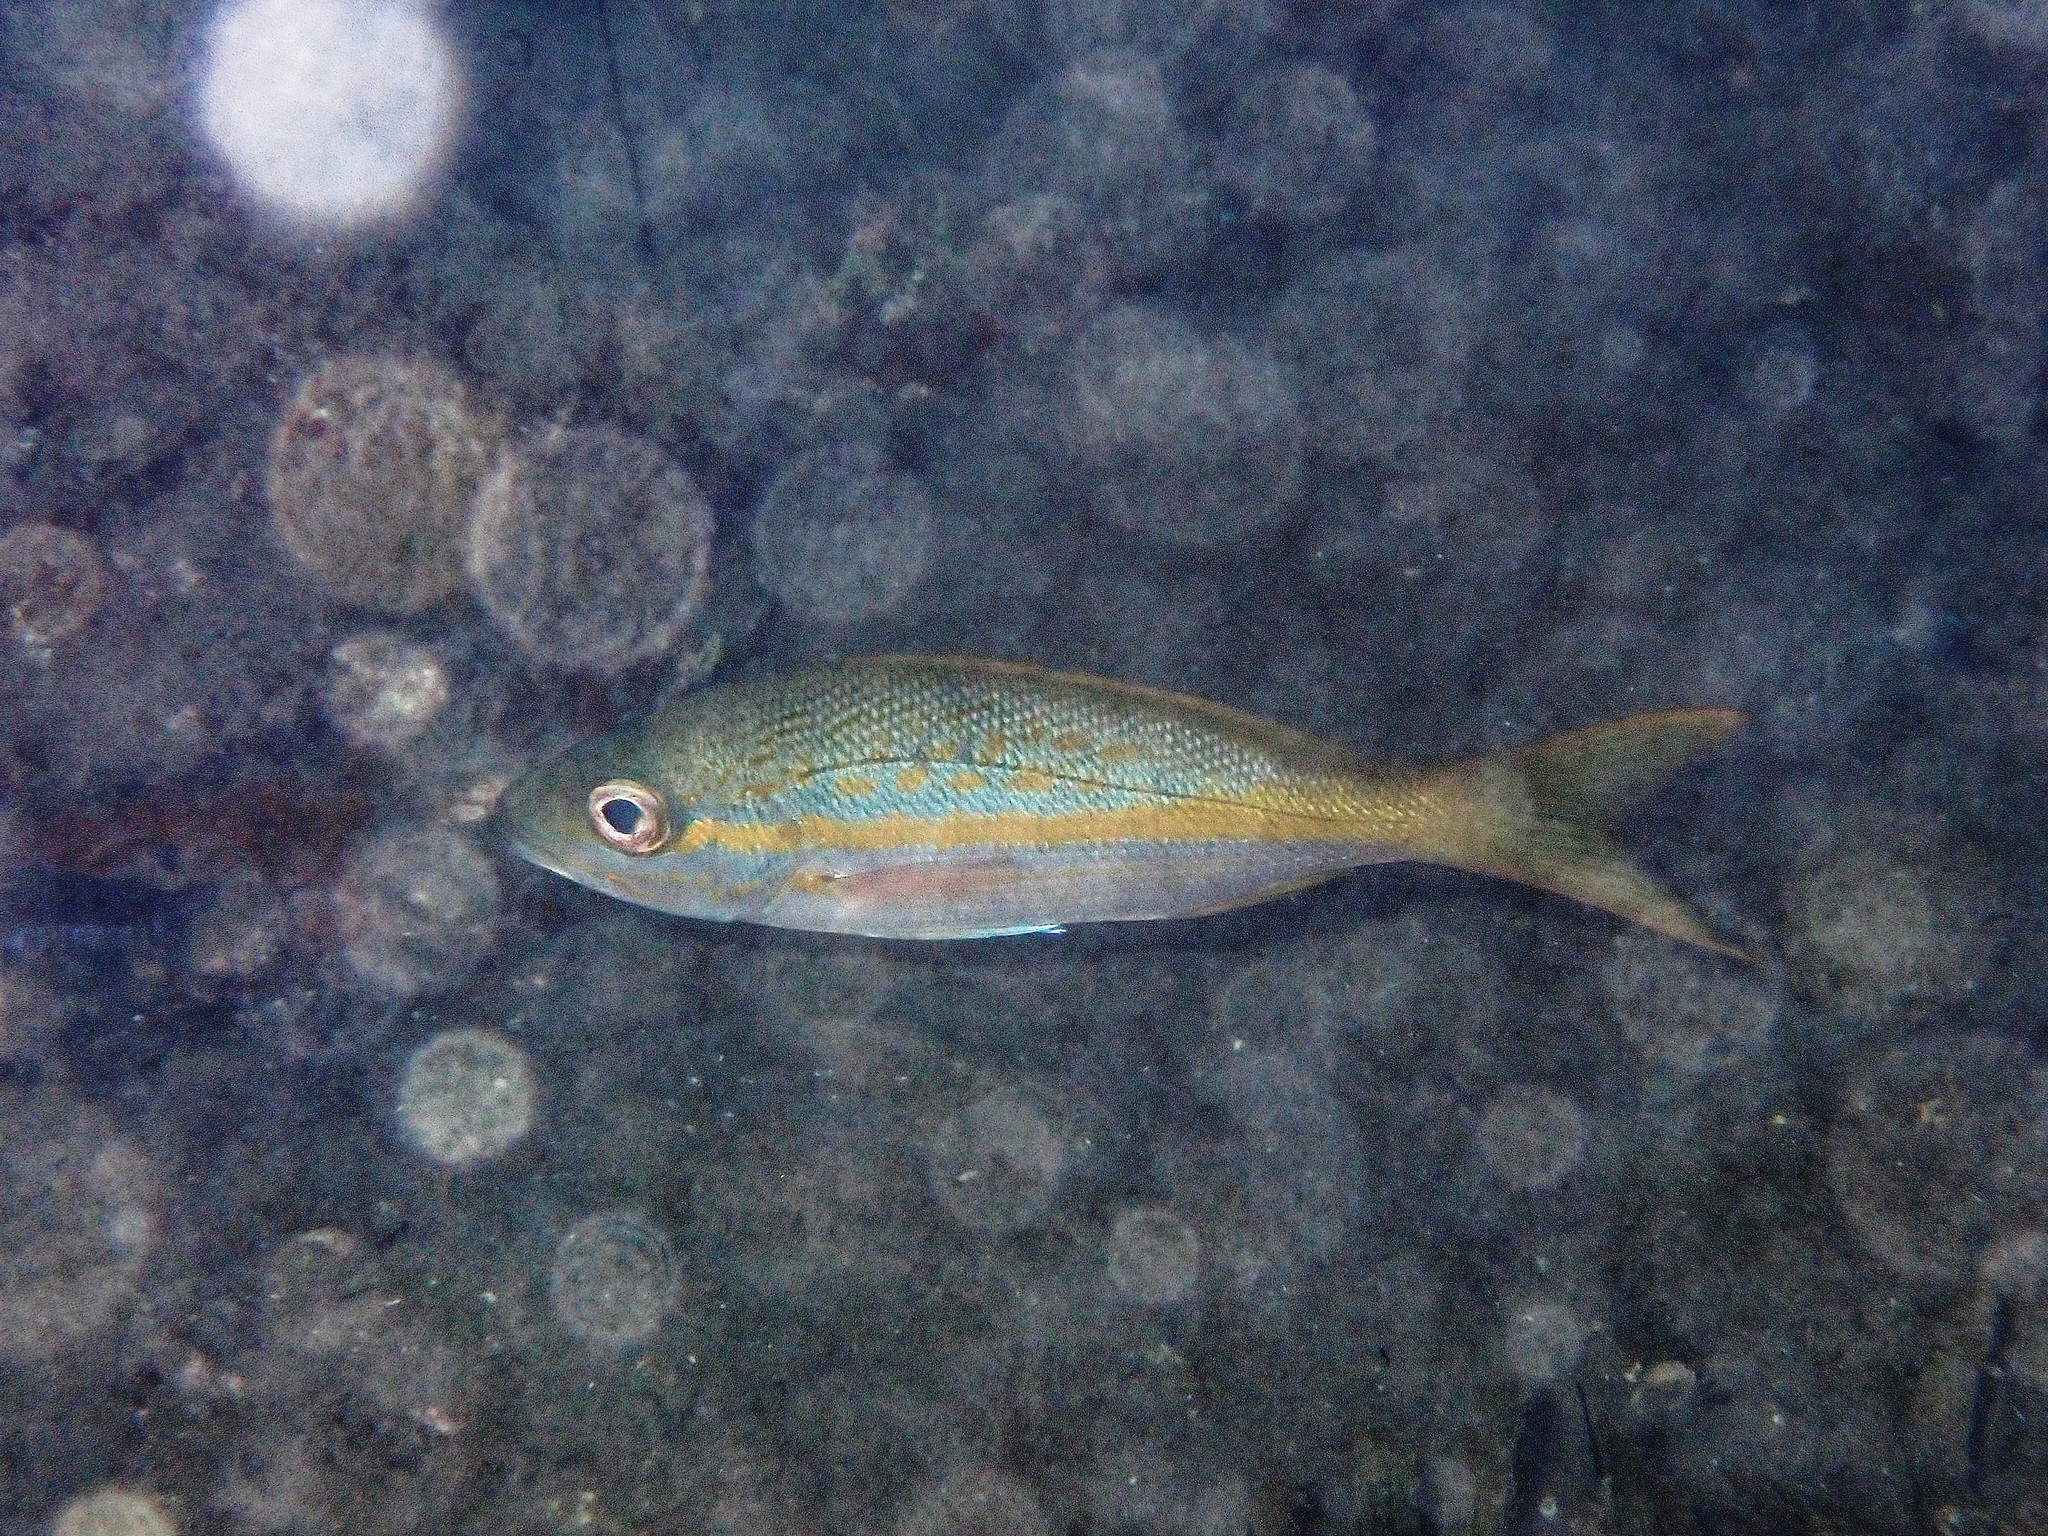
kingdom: Animalia
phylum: Chordata
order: Perciformes
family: Lutjanidae
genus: Ocyurus
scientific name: Ocyurus chrysurus
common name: Yellowtail snapper
